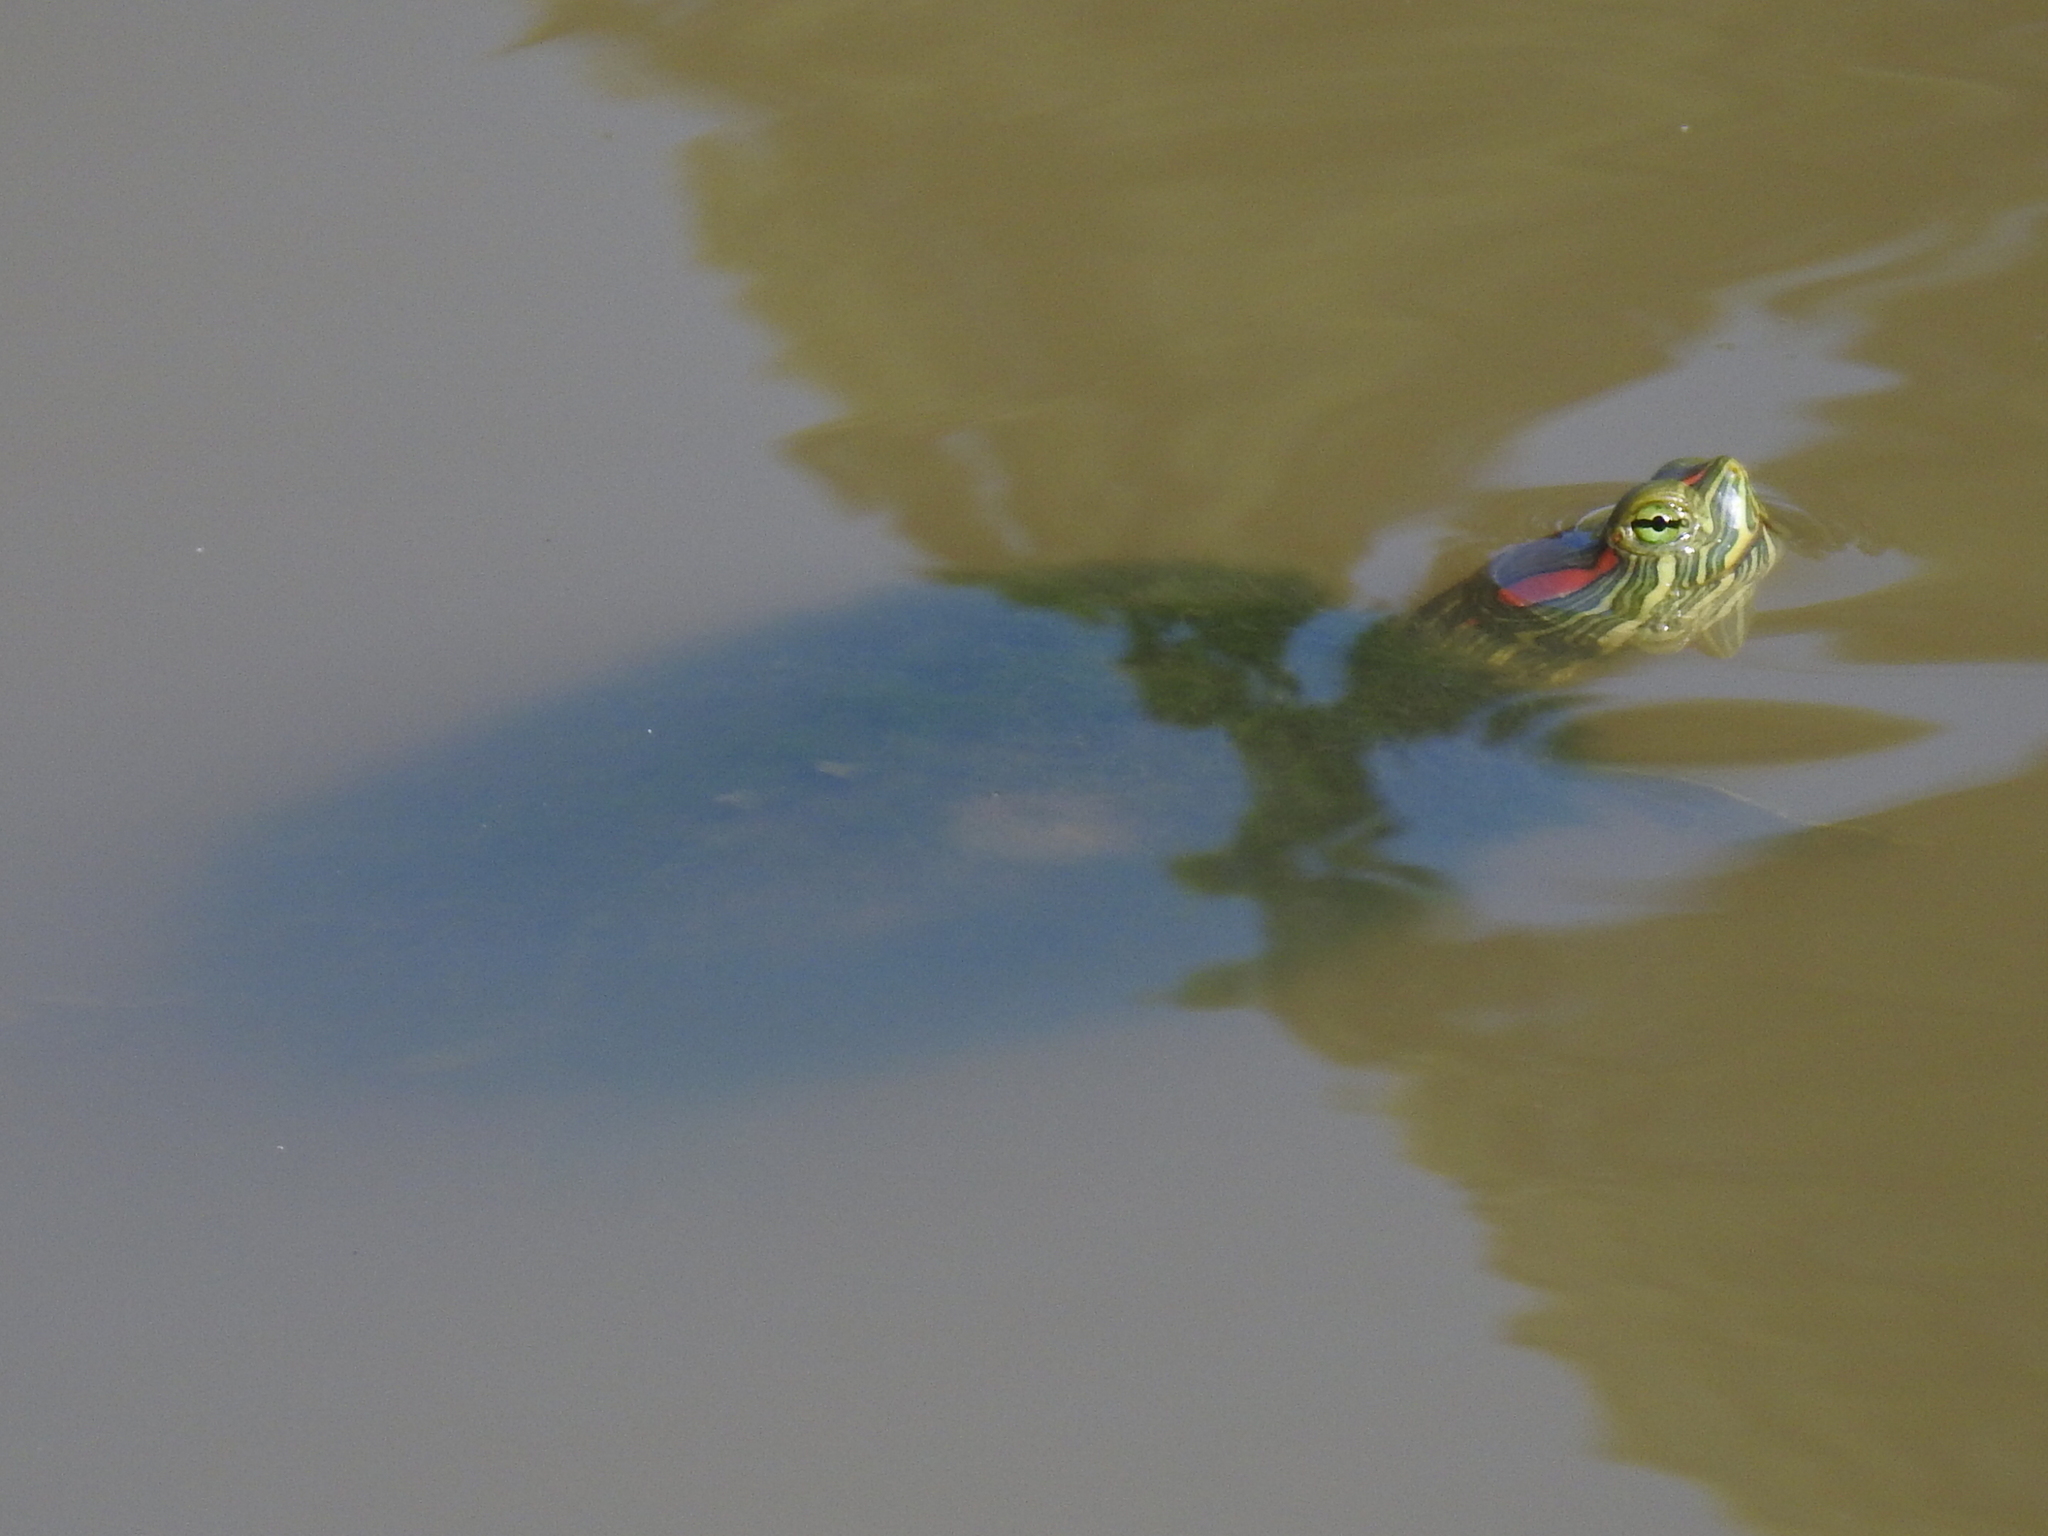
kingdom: Animalia
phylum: Chordata
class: Testudines
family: Emydidae
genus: Trachemys
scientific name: Trachemys scripta
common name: Slider
